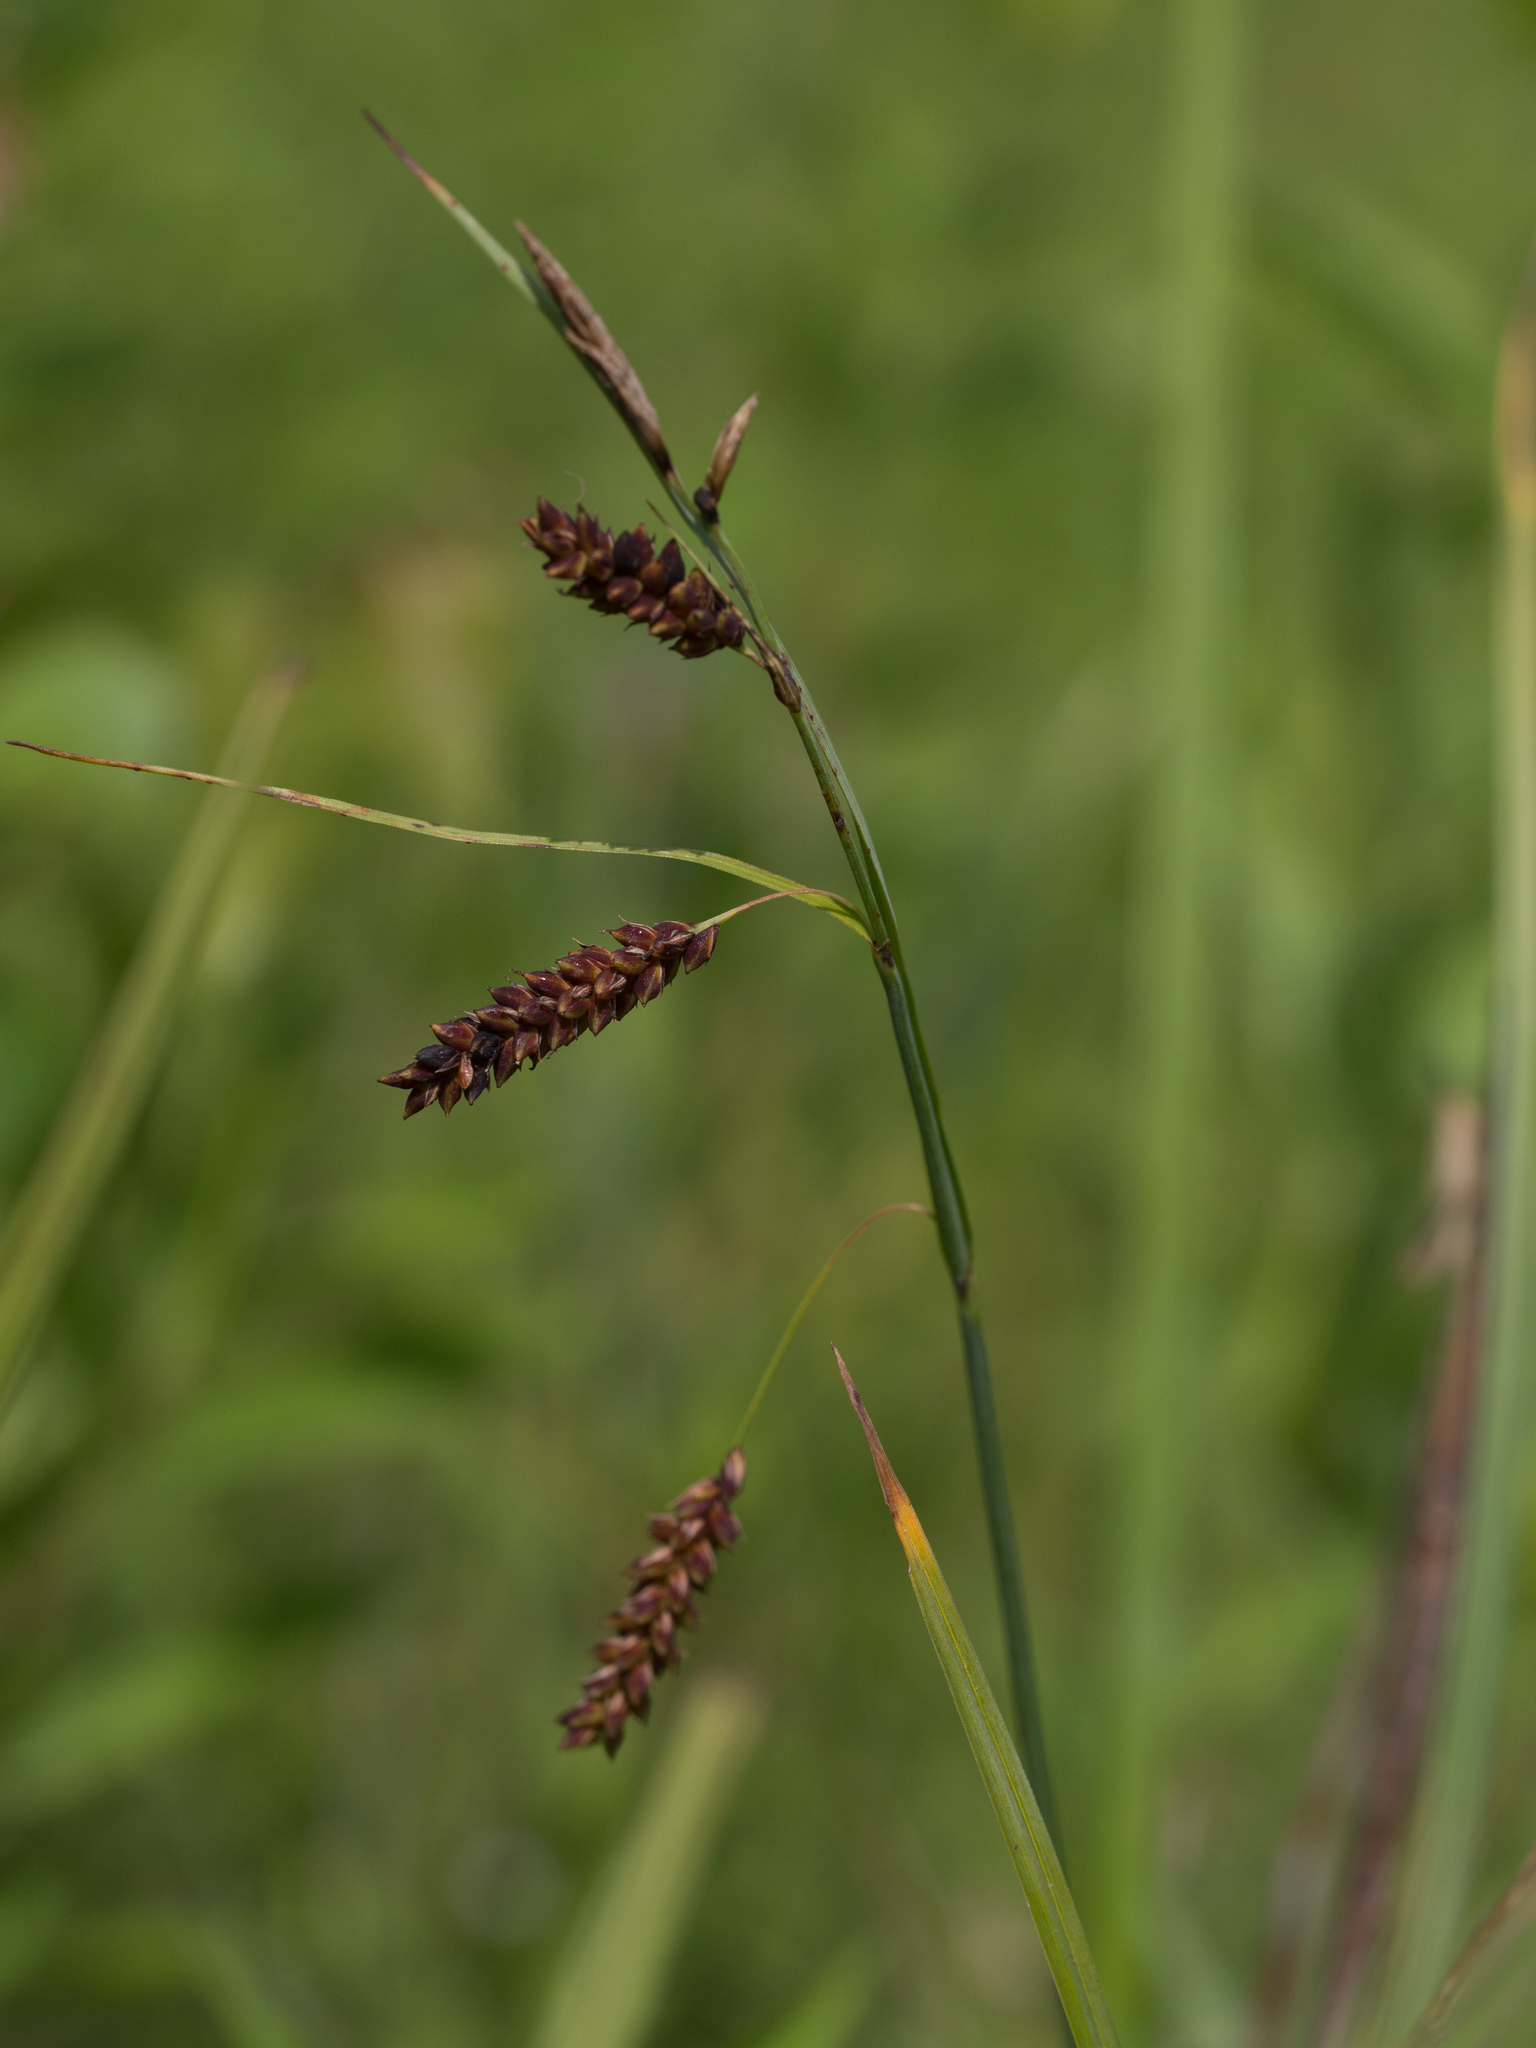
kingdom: Plantae
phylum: Tracheophyta
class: Liliopsida
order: Poales
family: Cyperaceae
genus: Carex
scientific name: Carex flacca
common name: Glaucous sedge
